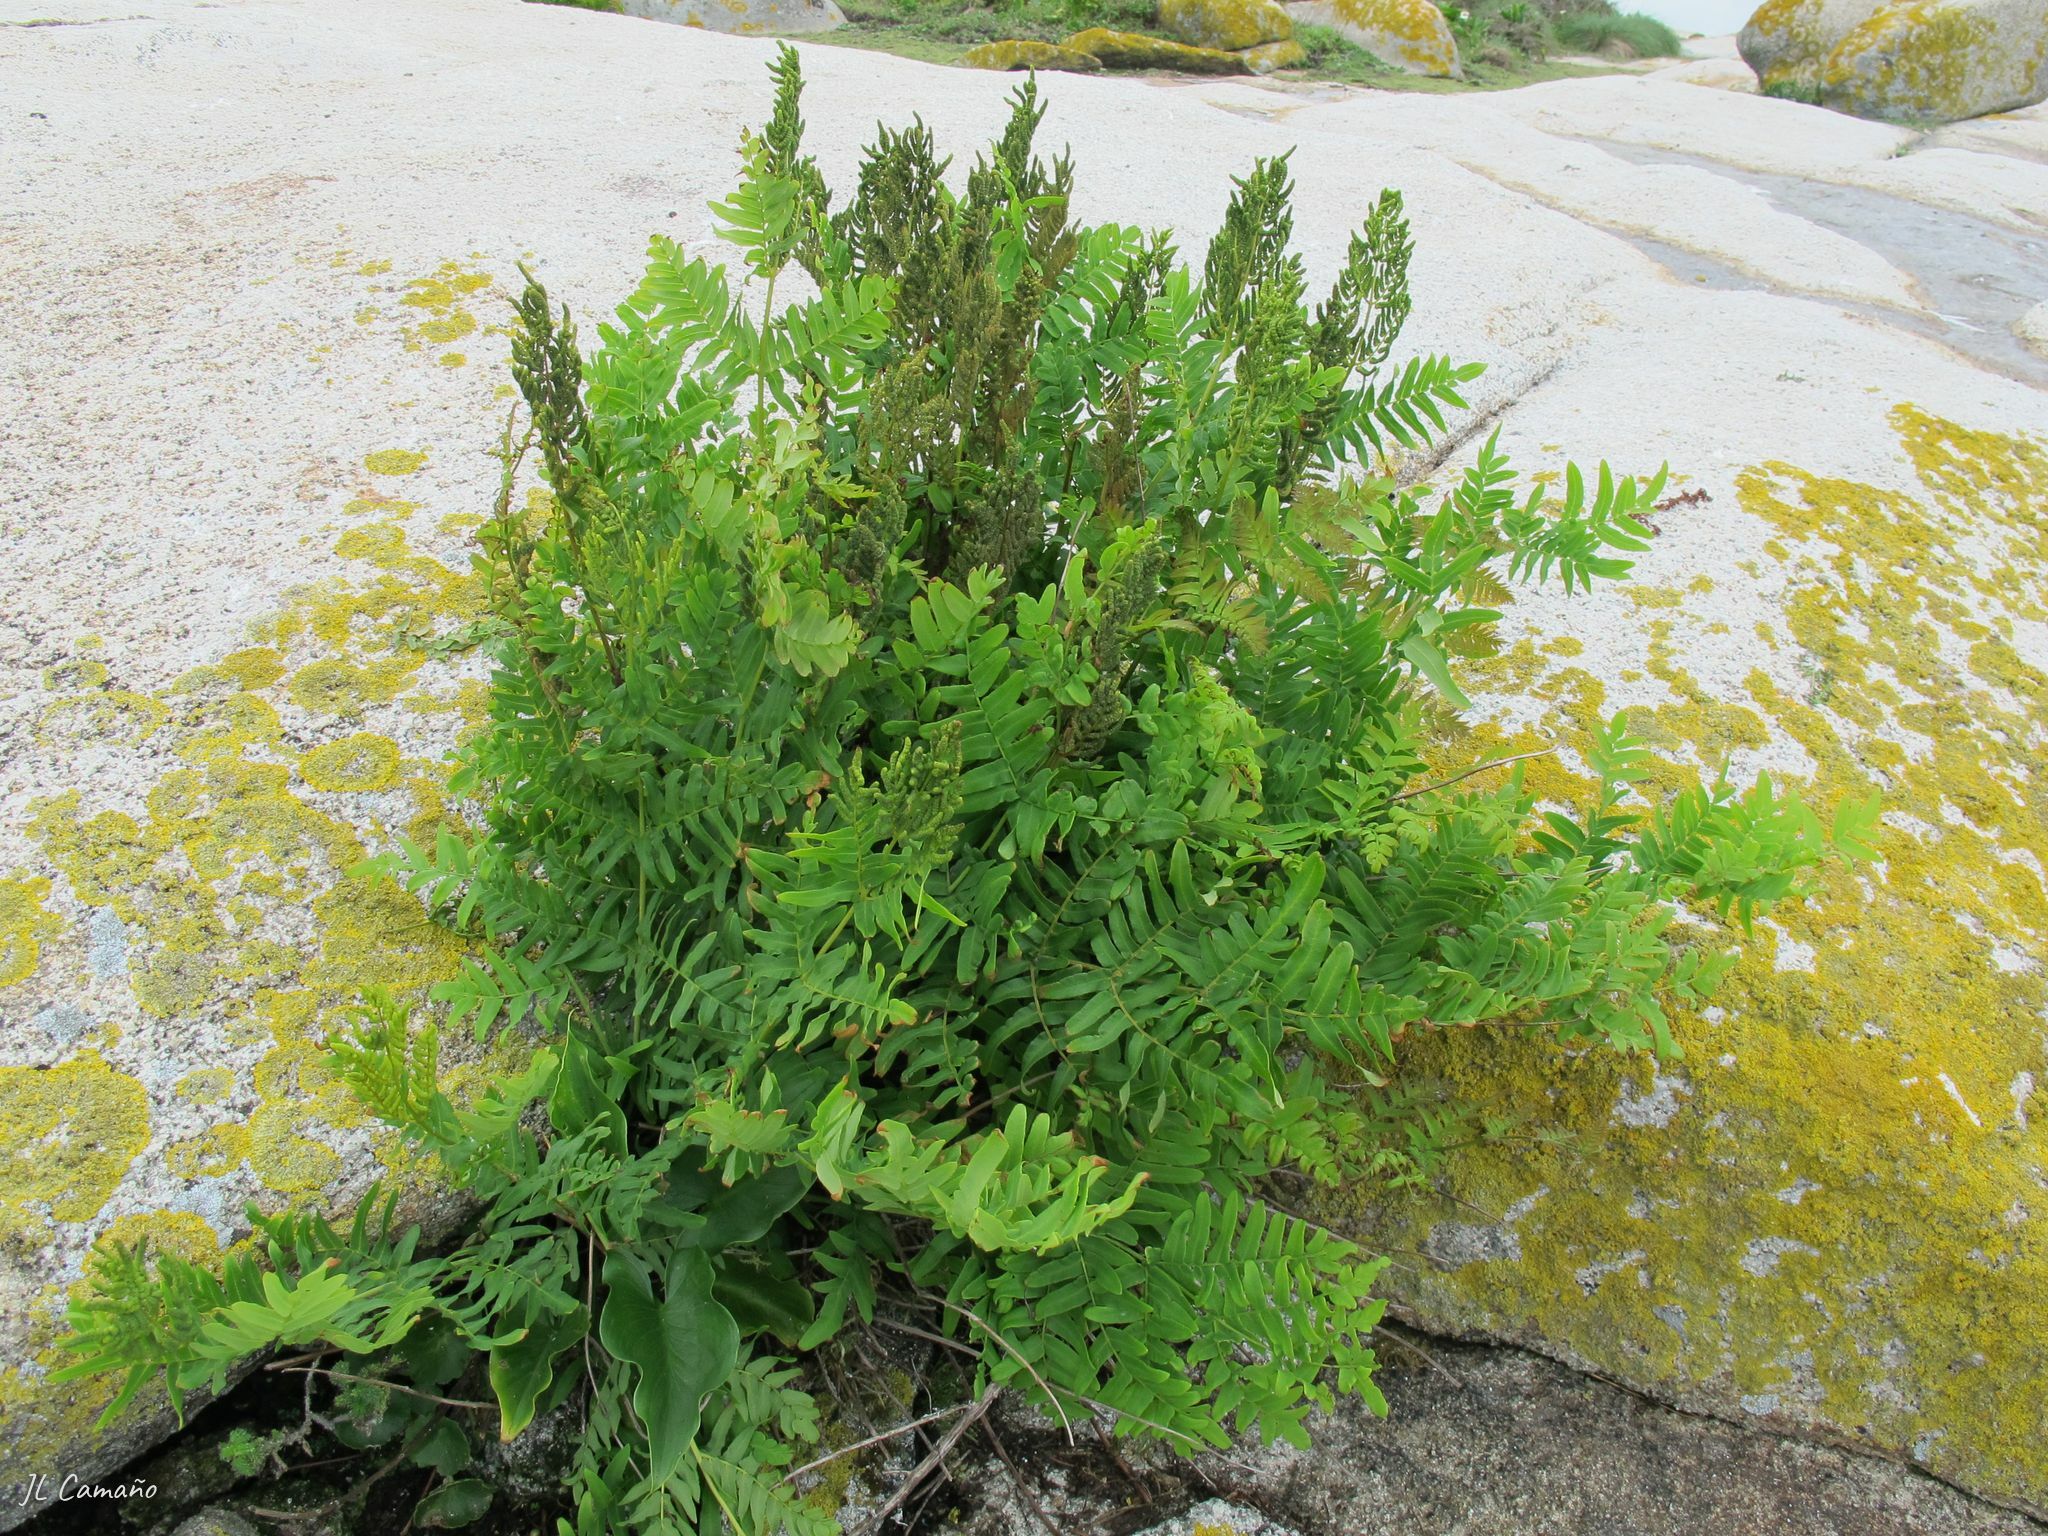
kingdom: Plantae
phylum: Tracheophyta
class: Polypodiopsida
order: Osmundales
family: Osmundaceae
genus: Osmunda
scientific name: Osmunda regalis
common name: Royal fern
